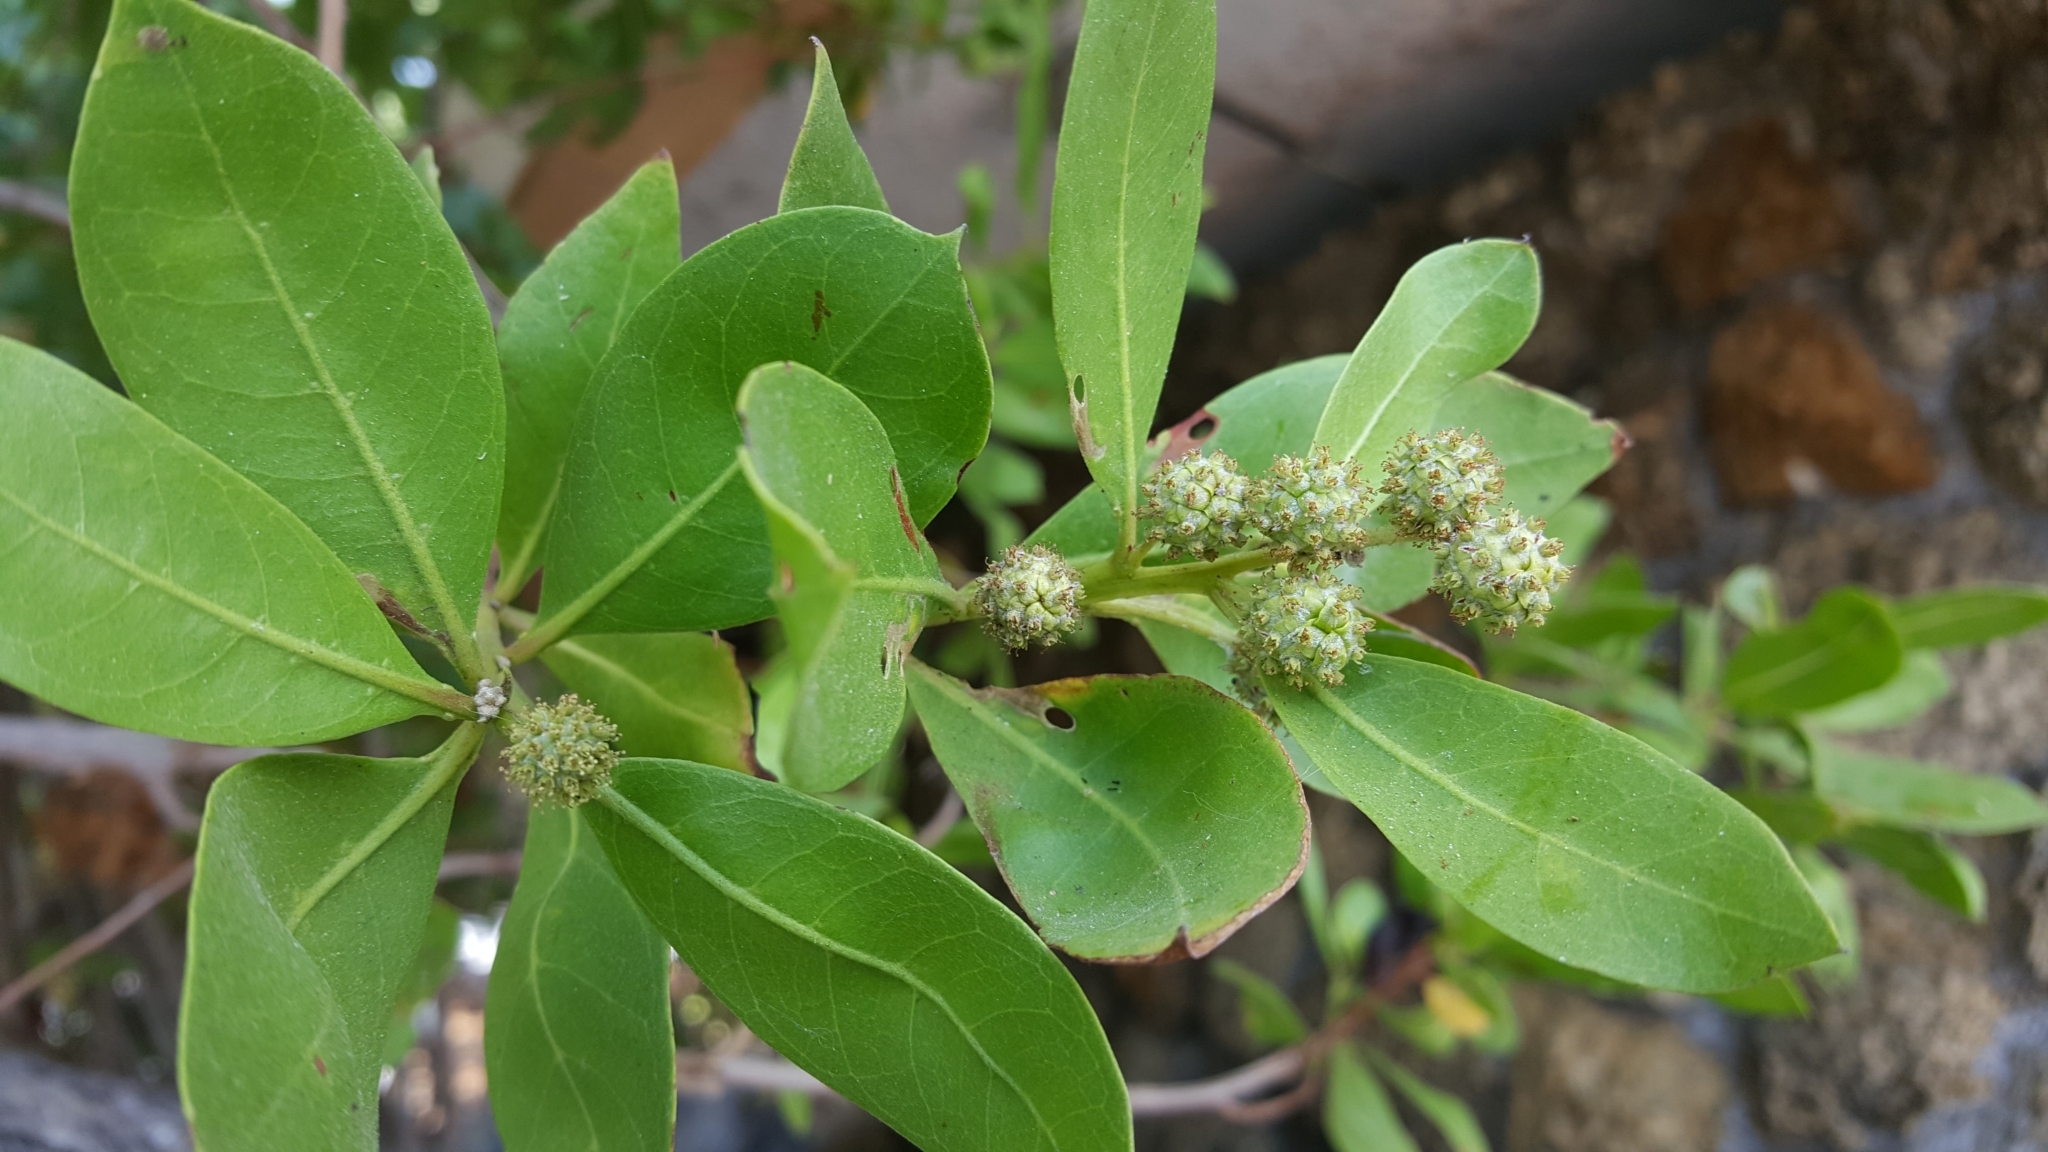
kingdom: Plantae
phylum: Tracheophyta
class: Magnoliopsida
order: Myrtales
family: Combretaceae
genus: Conocarpus
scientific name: Conocarpus erectus
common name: Button mangrove
